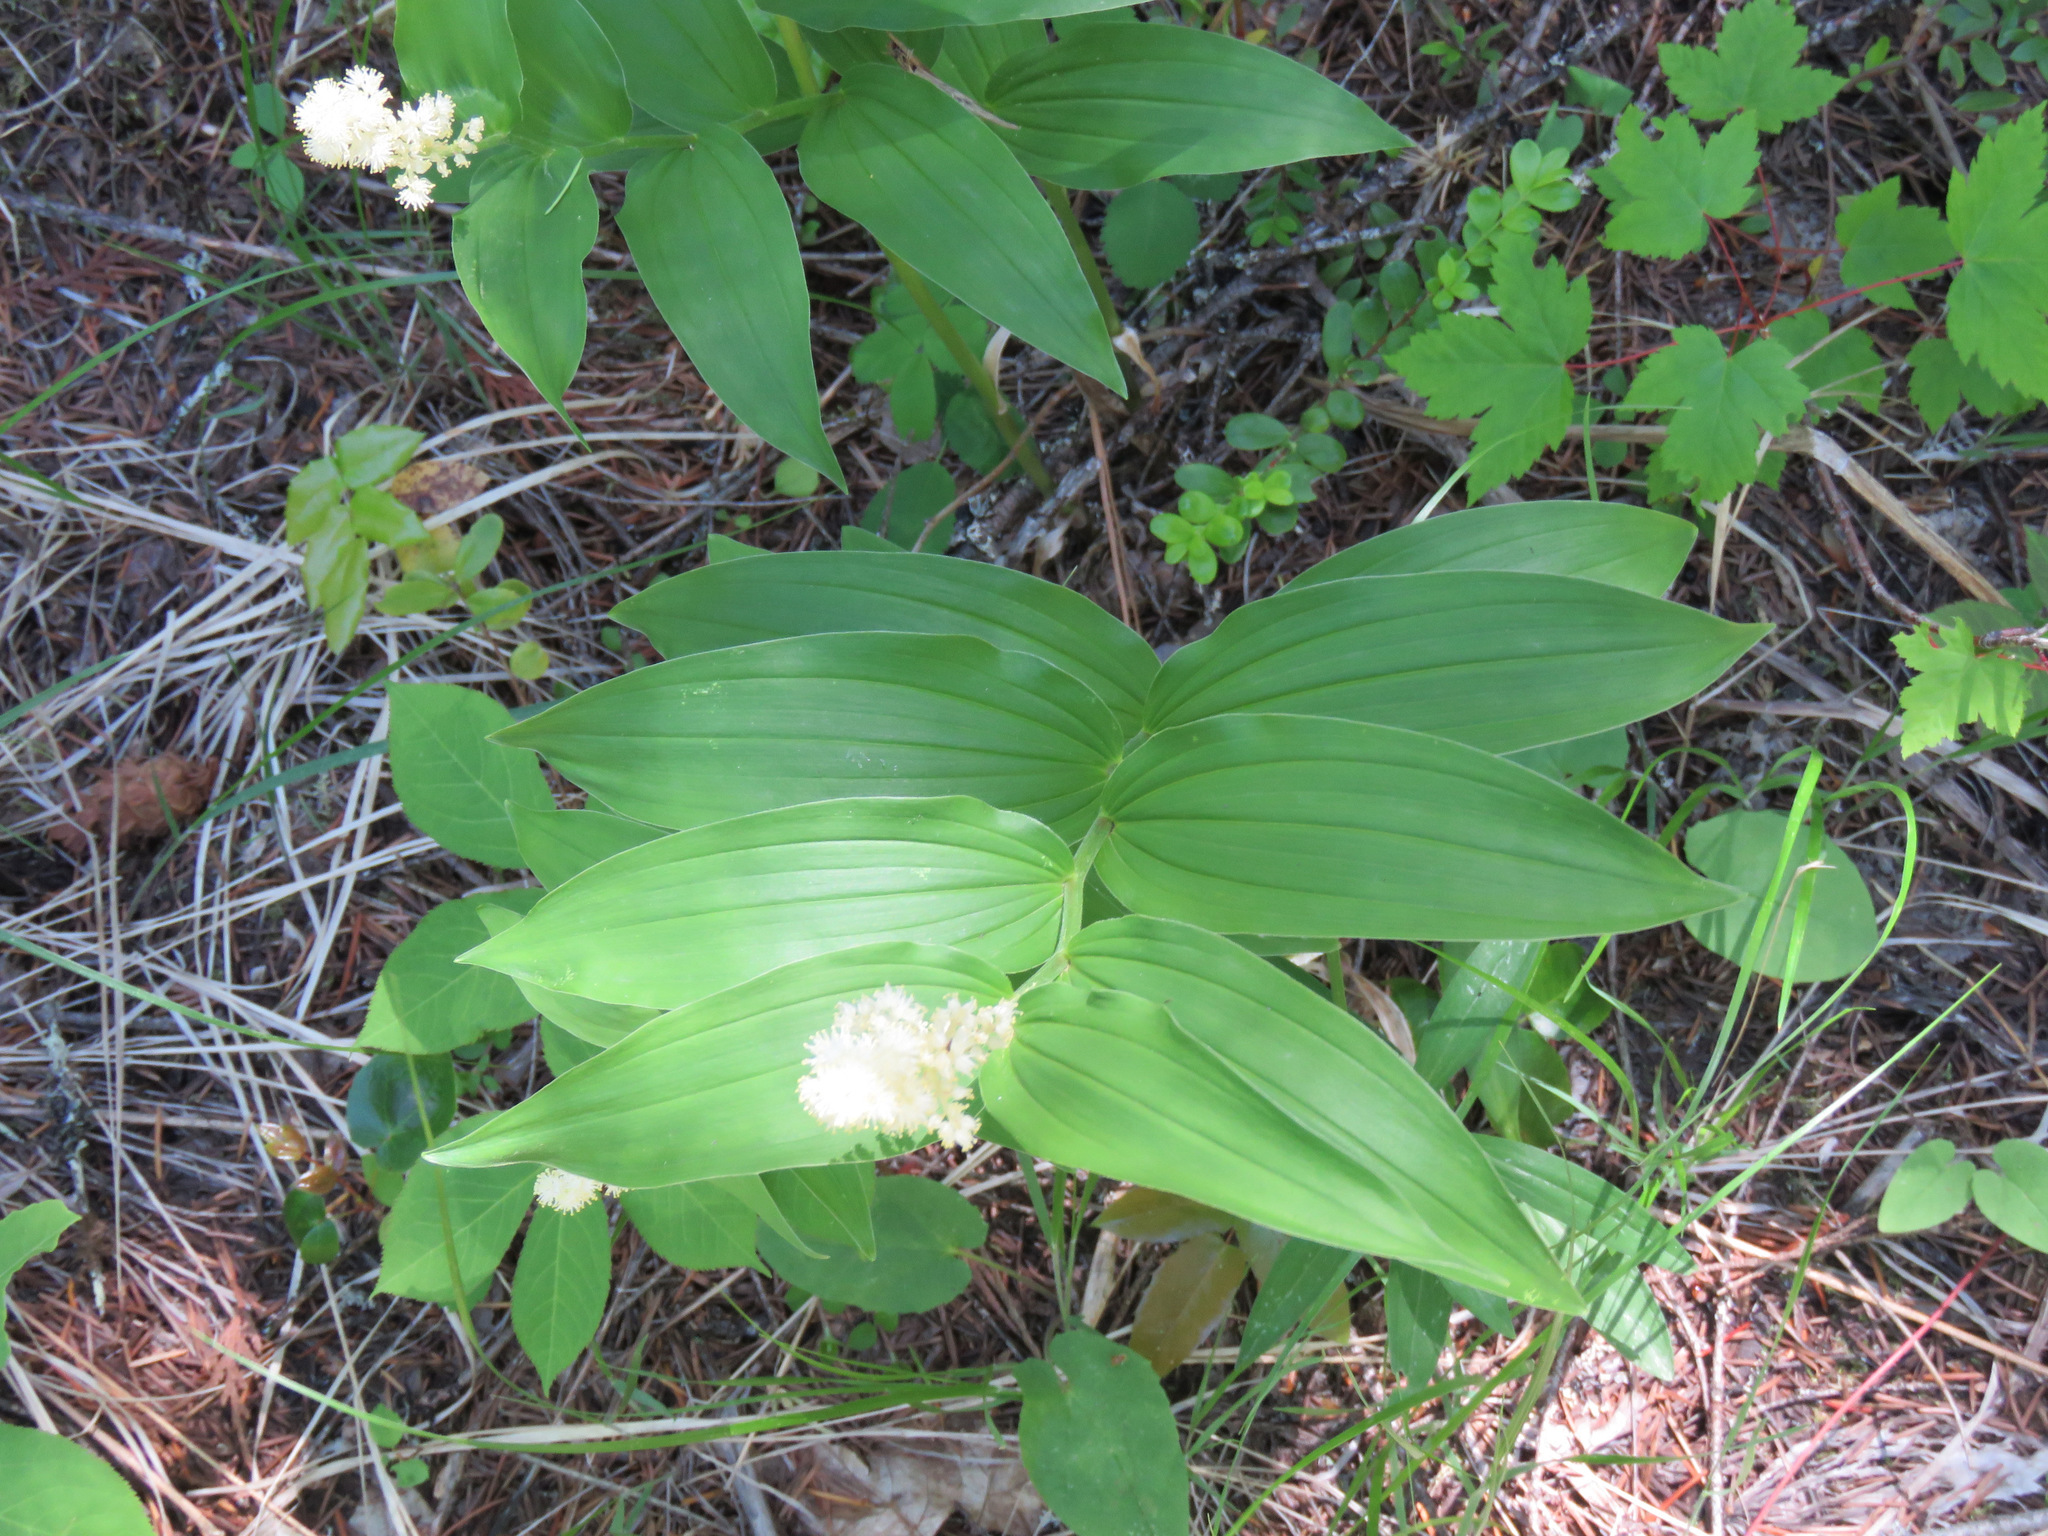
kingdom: Plantae
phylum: Tracheophyta
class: Liliopsida
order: Asparagales
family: Asparagaceae
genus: Maianthemum
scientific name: Maianthemum racemosum
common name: False spikenard
